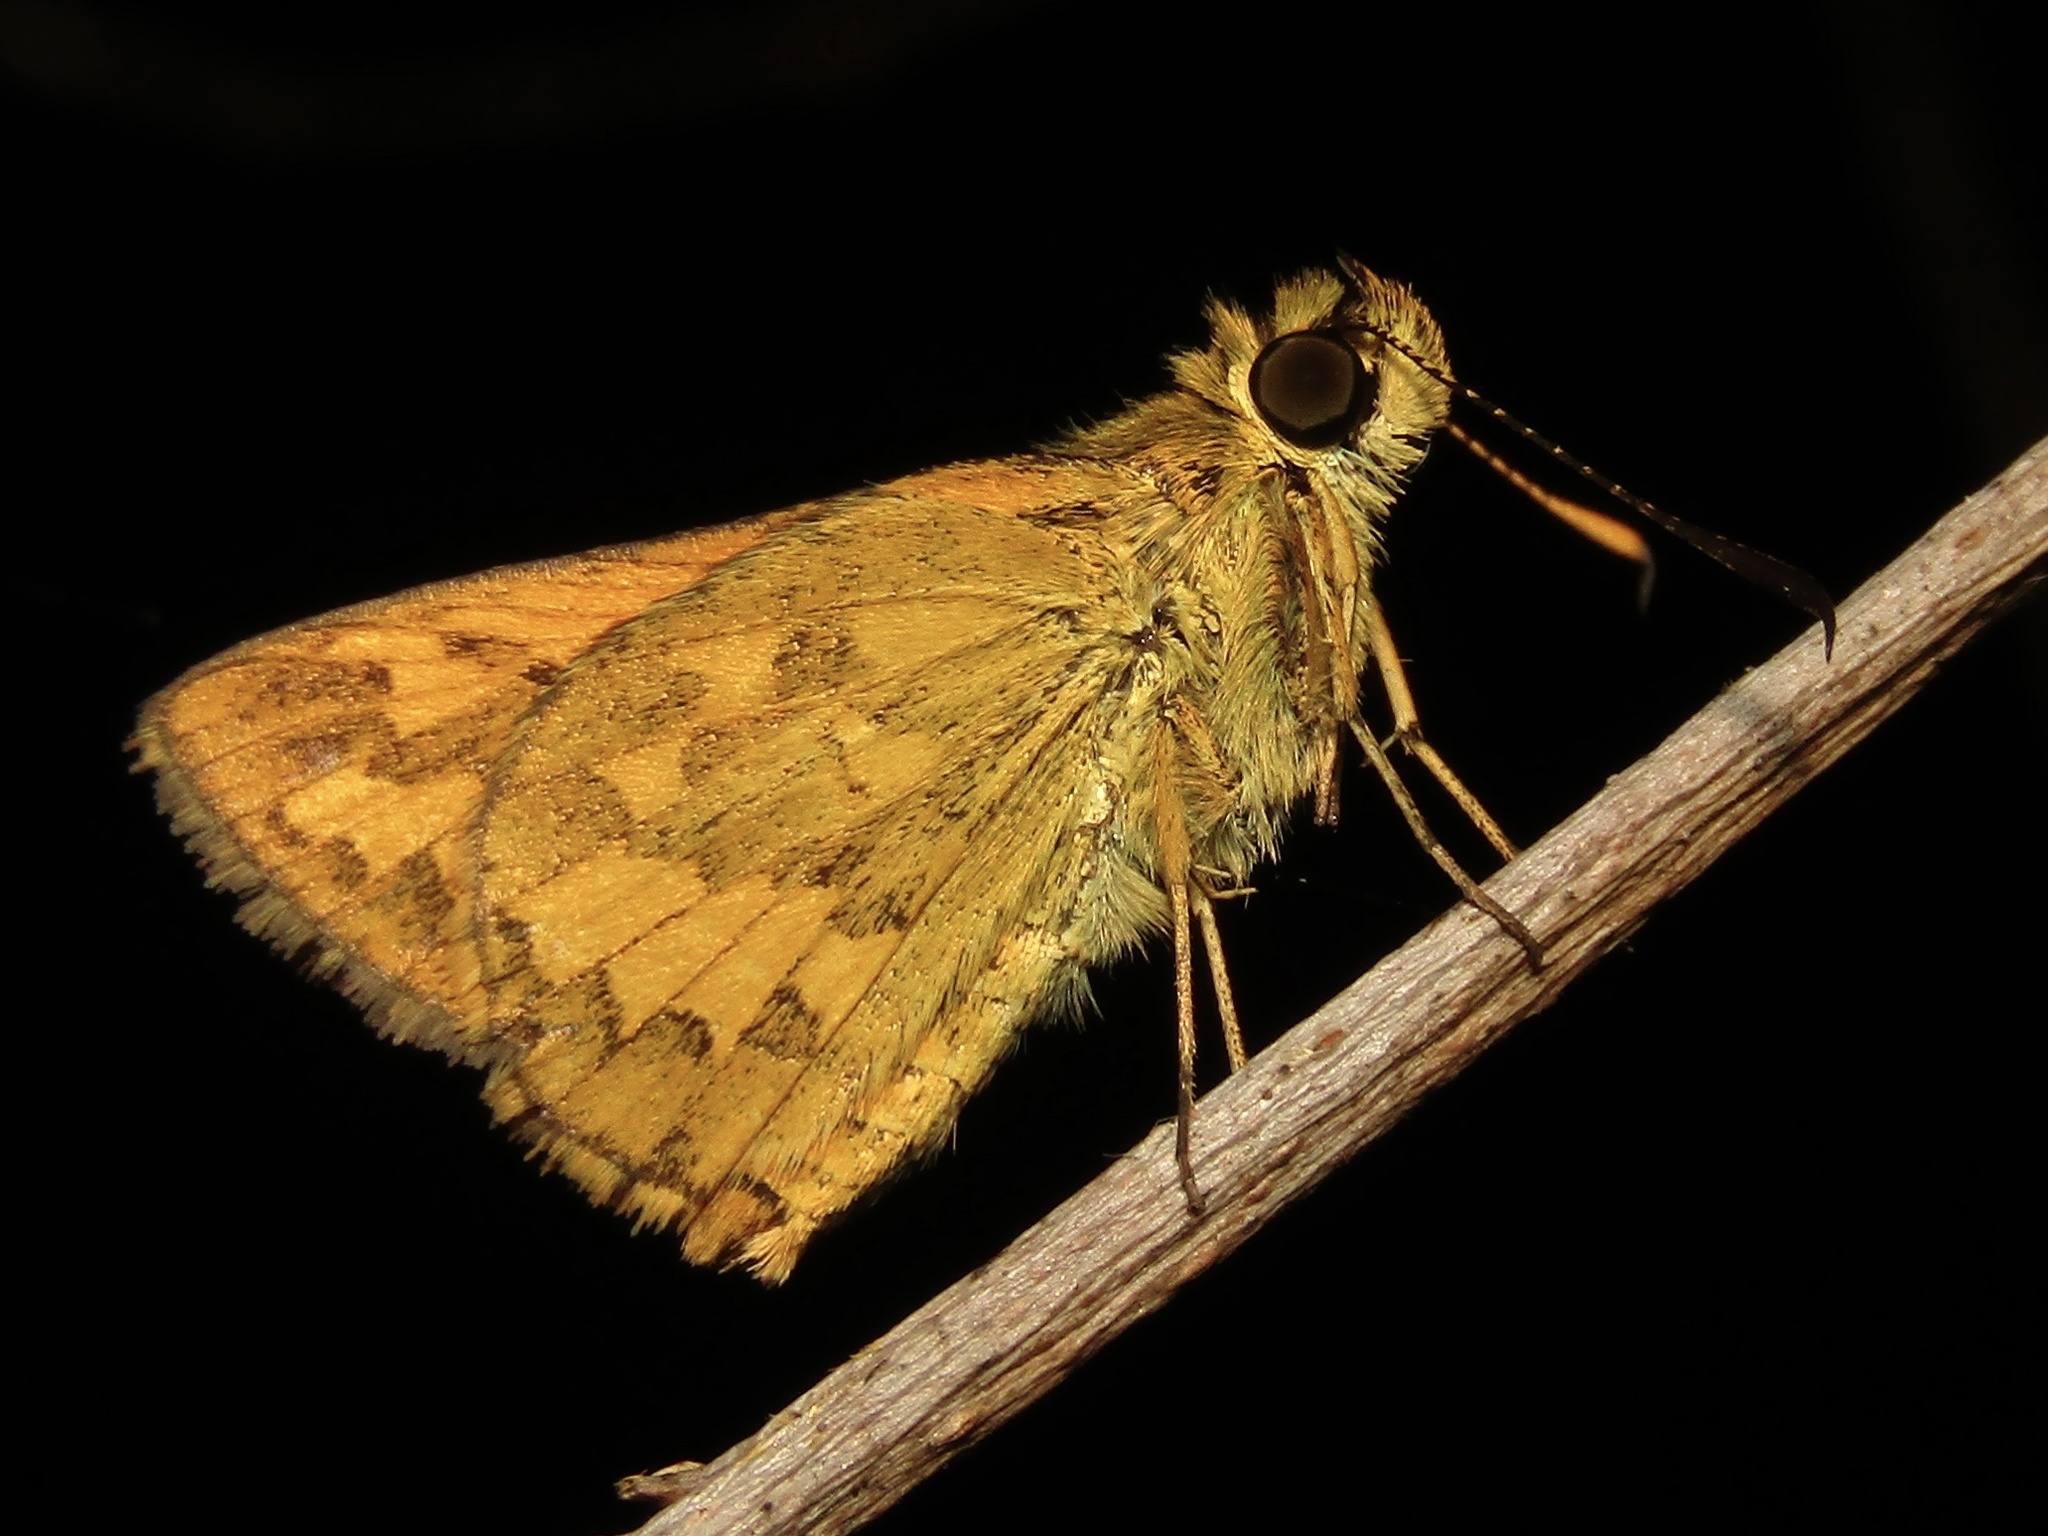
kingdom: Animalia
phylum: Arthropoda
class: Insecta
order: Lepidoptera
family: Hesperiidae
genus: Suniana
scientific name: Suniana sunias
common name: Wide-brand grass-dart
